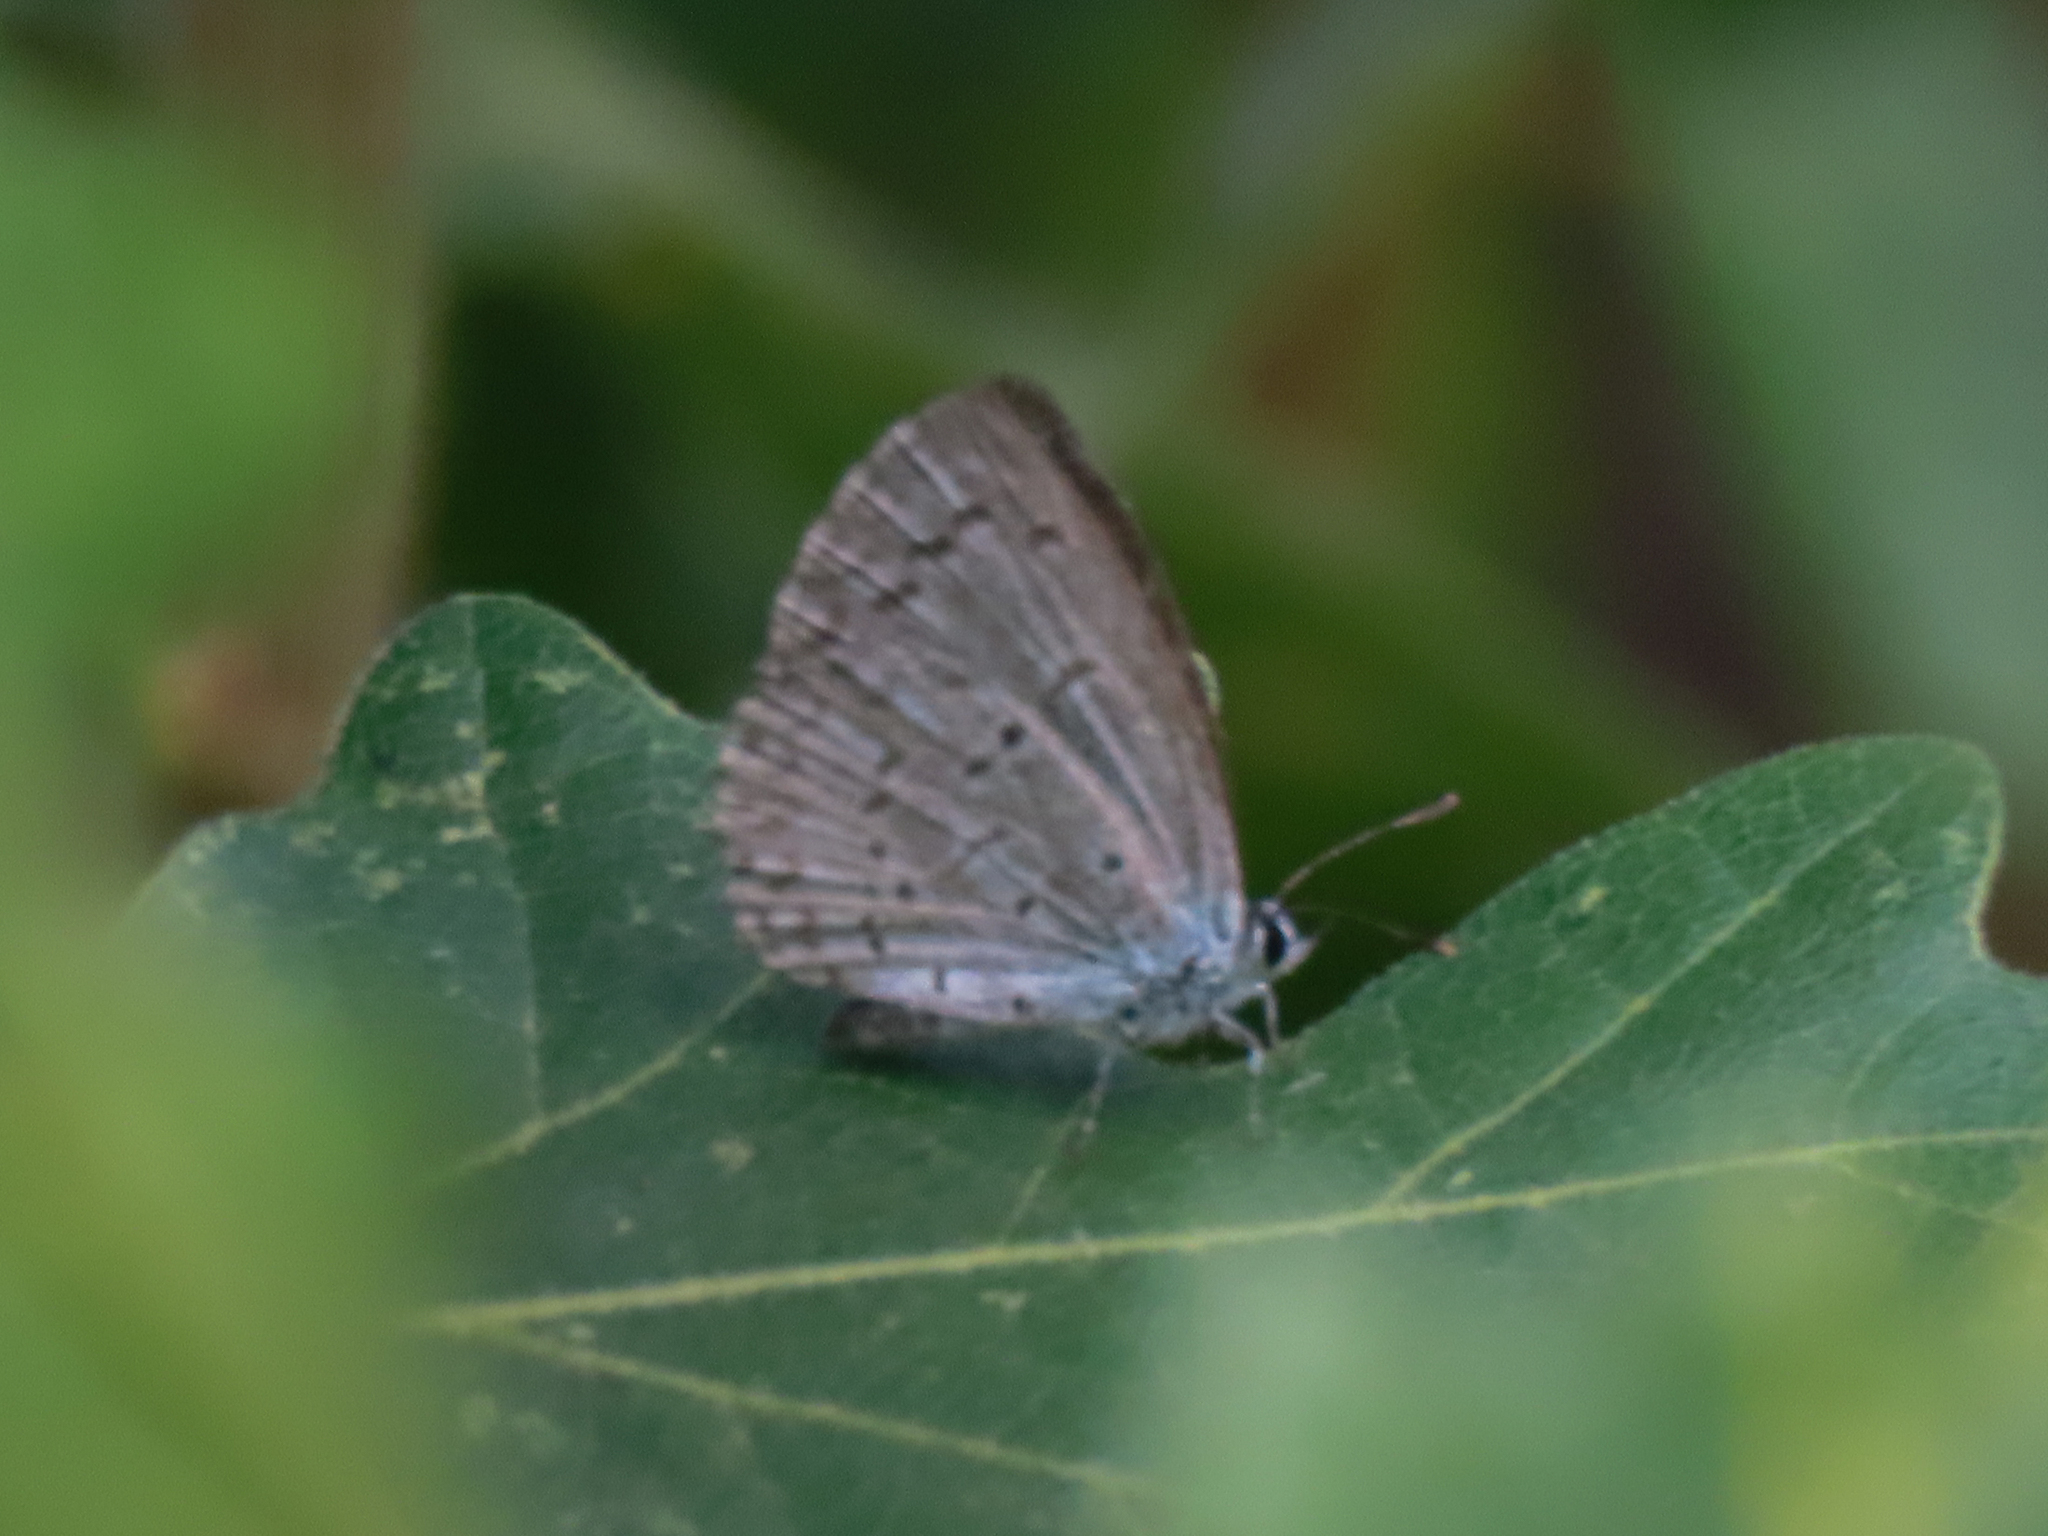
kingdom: Animalia
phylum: Arthropoda
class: Insecta
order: Lepidoptera
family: Lycaenidae
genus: Celastrina
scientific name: Celastrina ladon
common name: Spring azure
